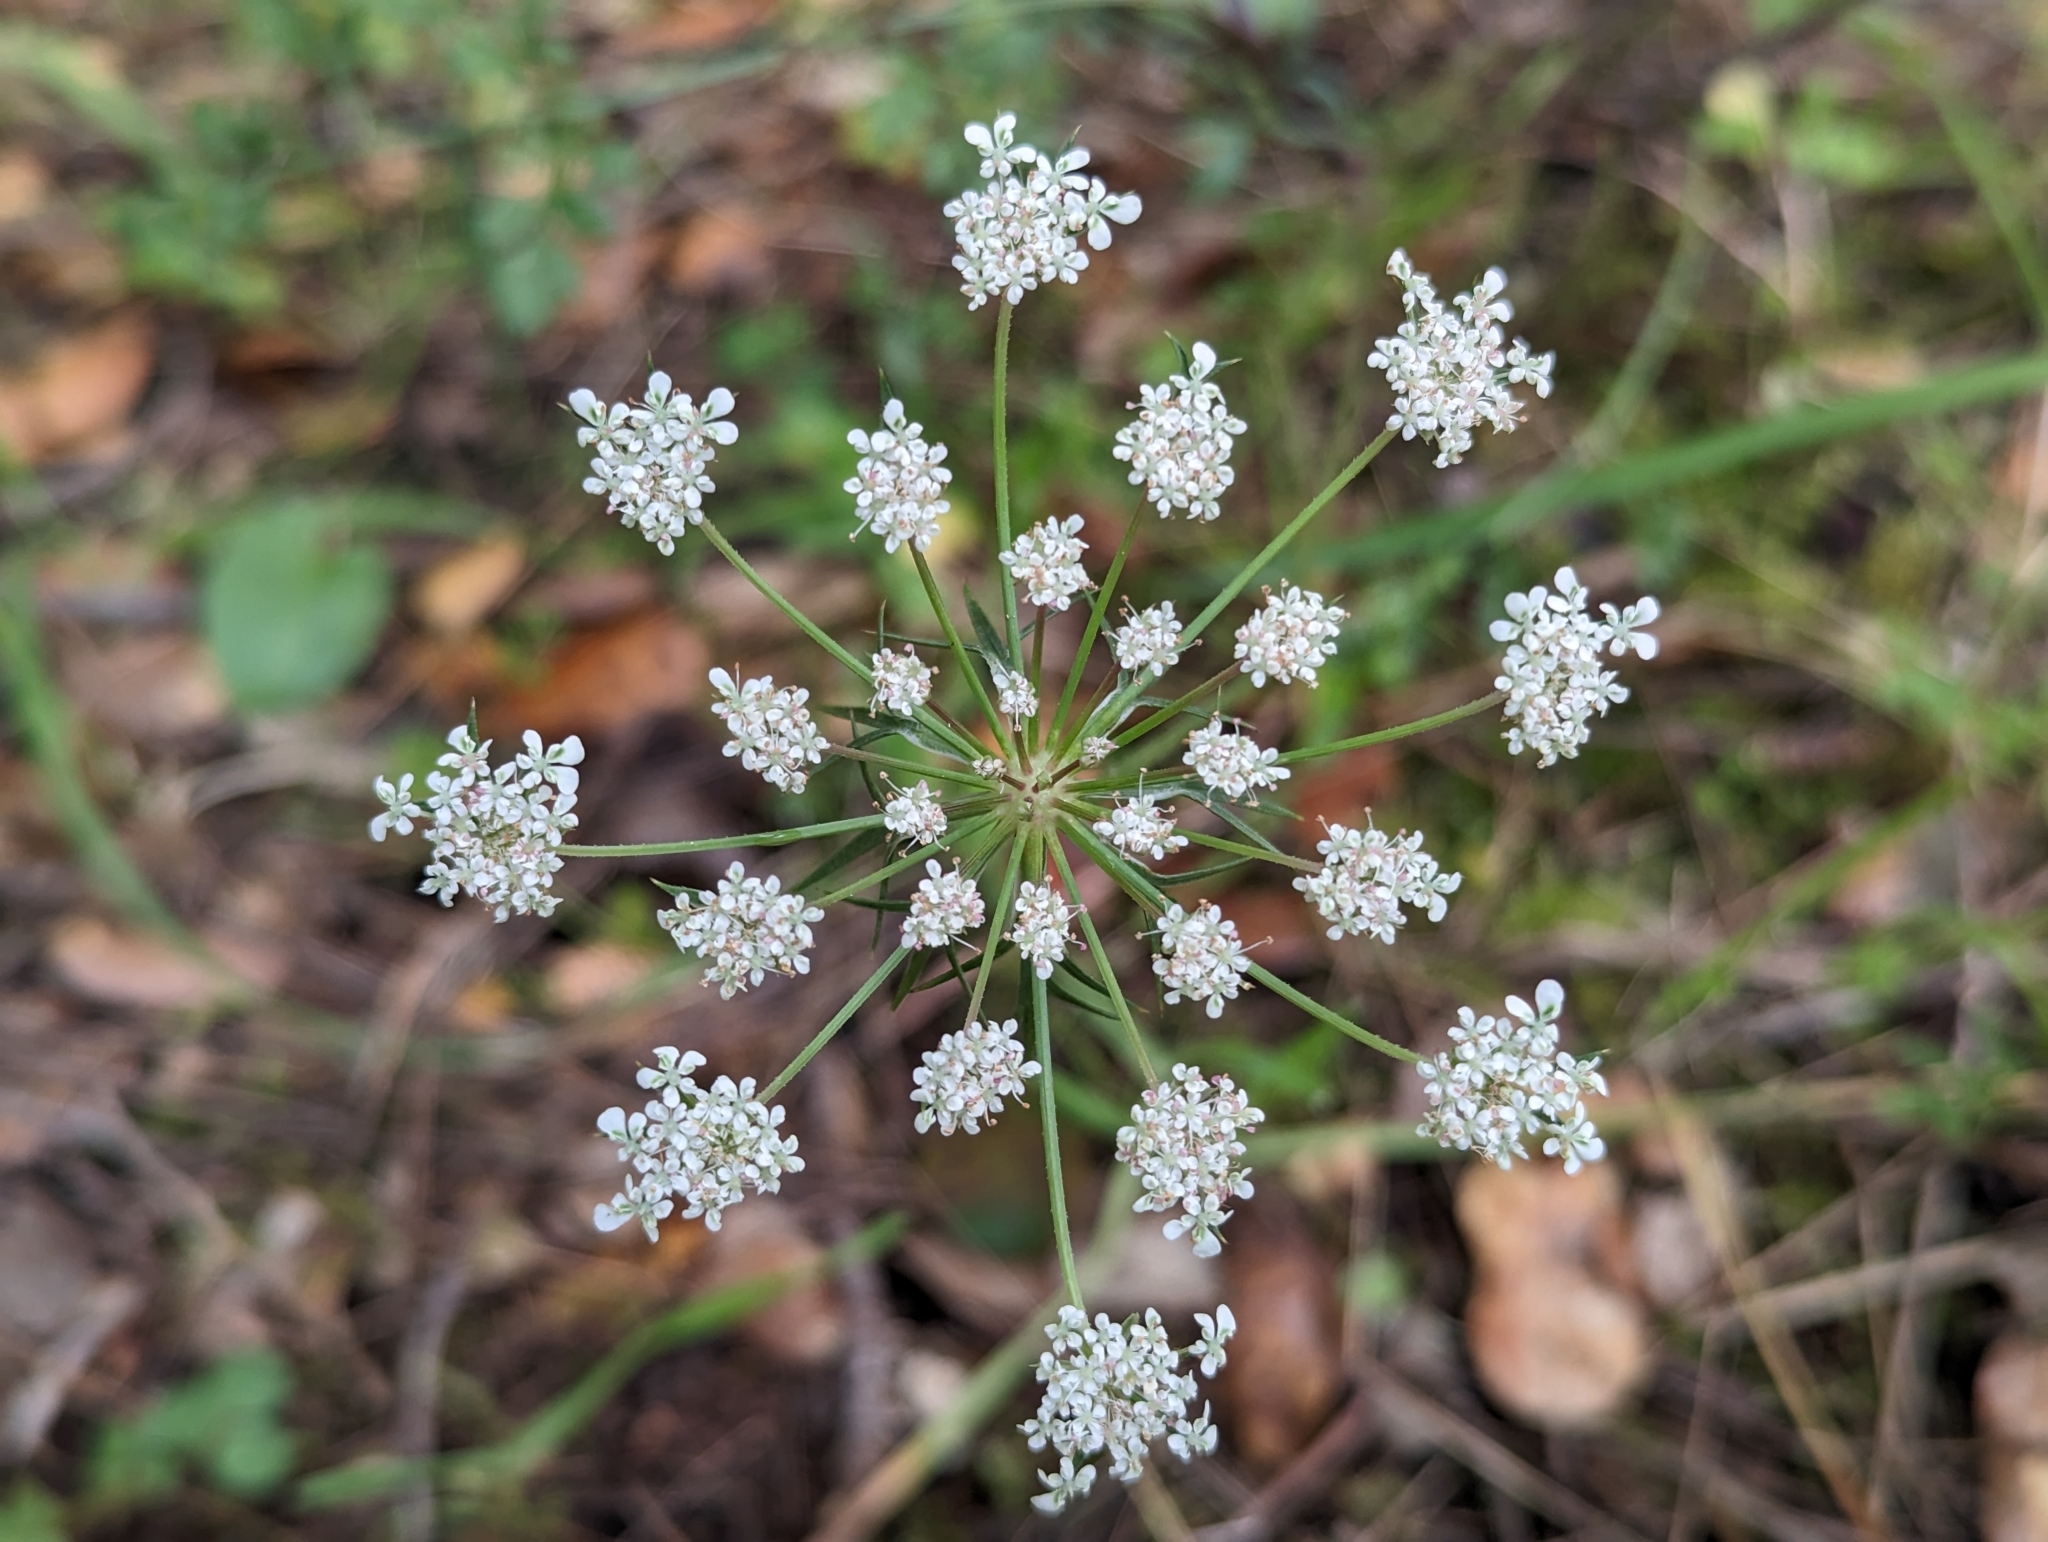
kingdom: Plantae
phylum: Tracheophyta
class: Magnoliopsida
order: Apiales
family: Apiaceae
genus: Daucus
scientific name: Daucus carota
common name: Wild carrot
